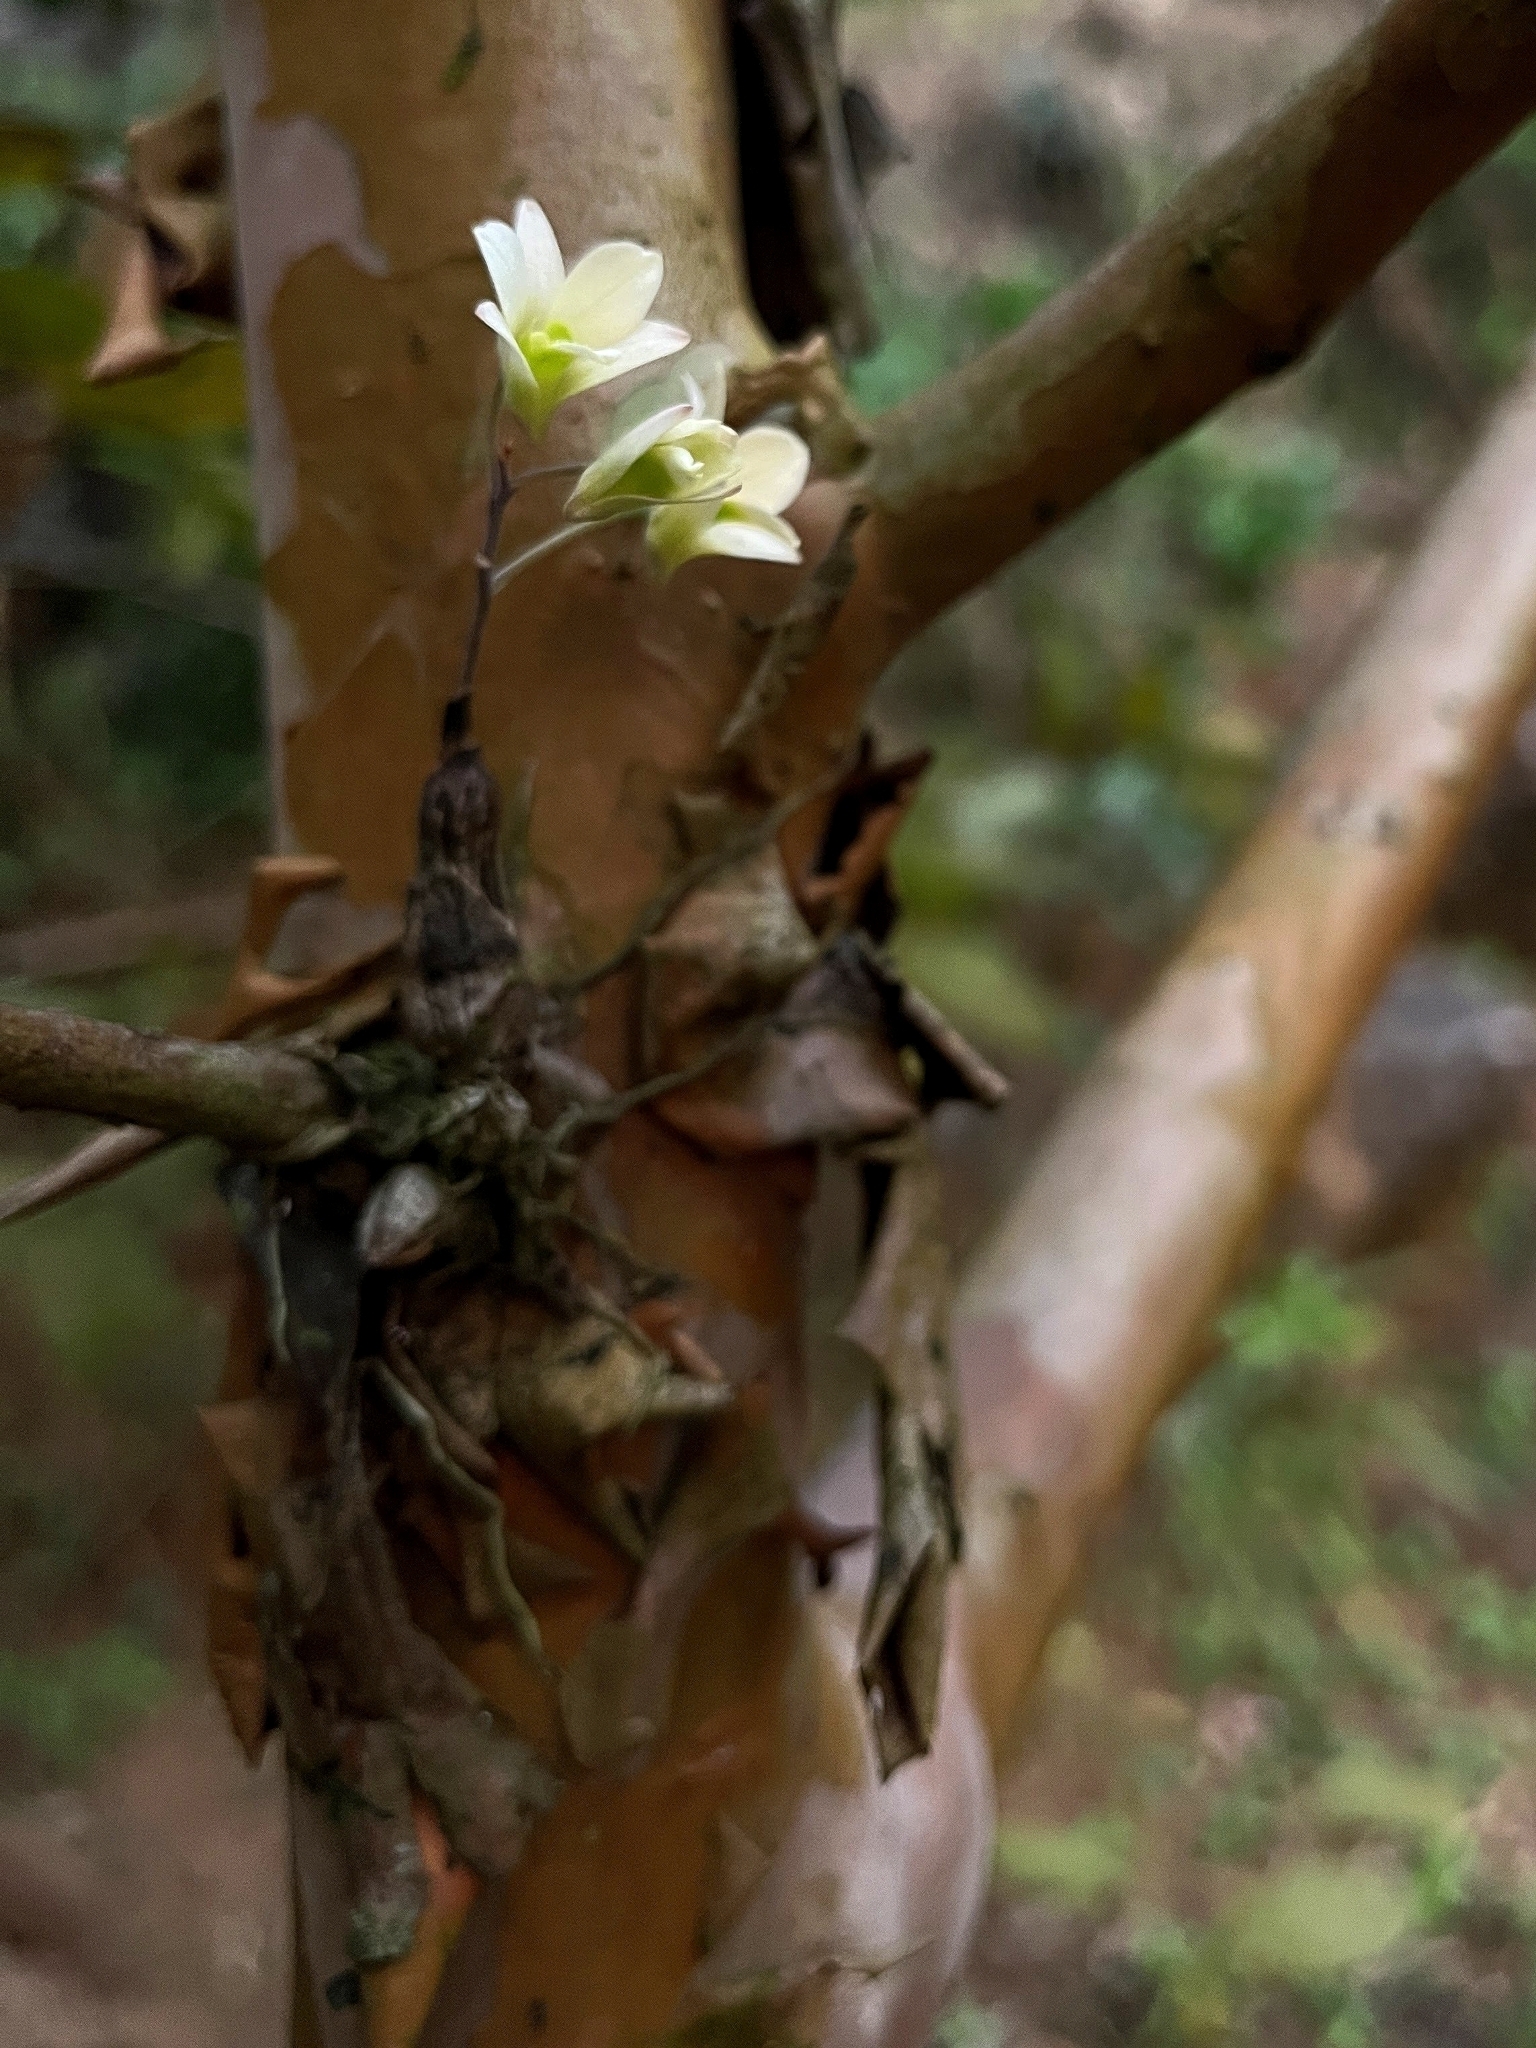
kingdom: Plantae
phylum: Tracheophyta
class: Liliopsida
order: Asparagales
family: Orchidaceae
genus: Dendrobium
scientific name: Dendrobium ovatum
